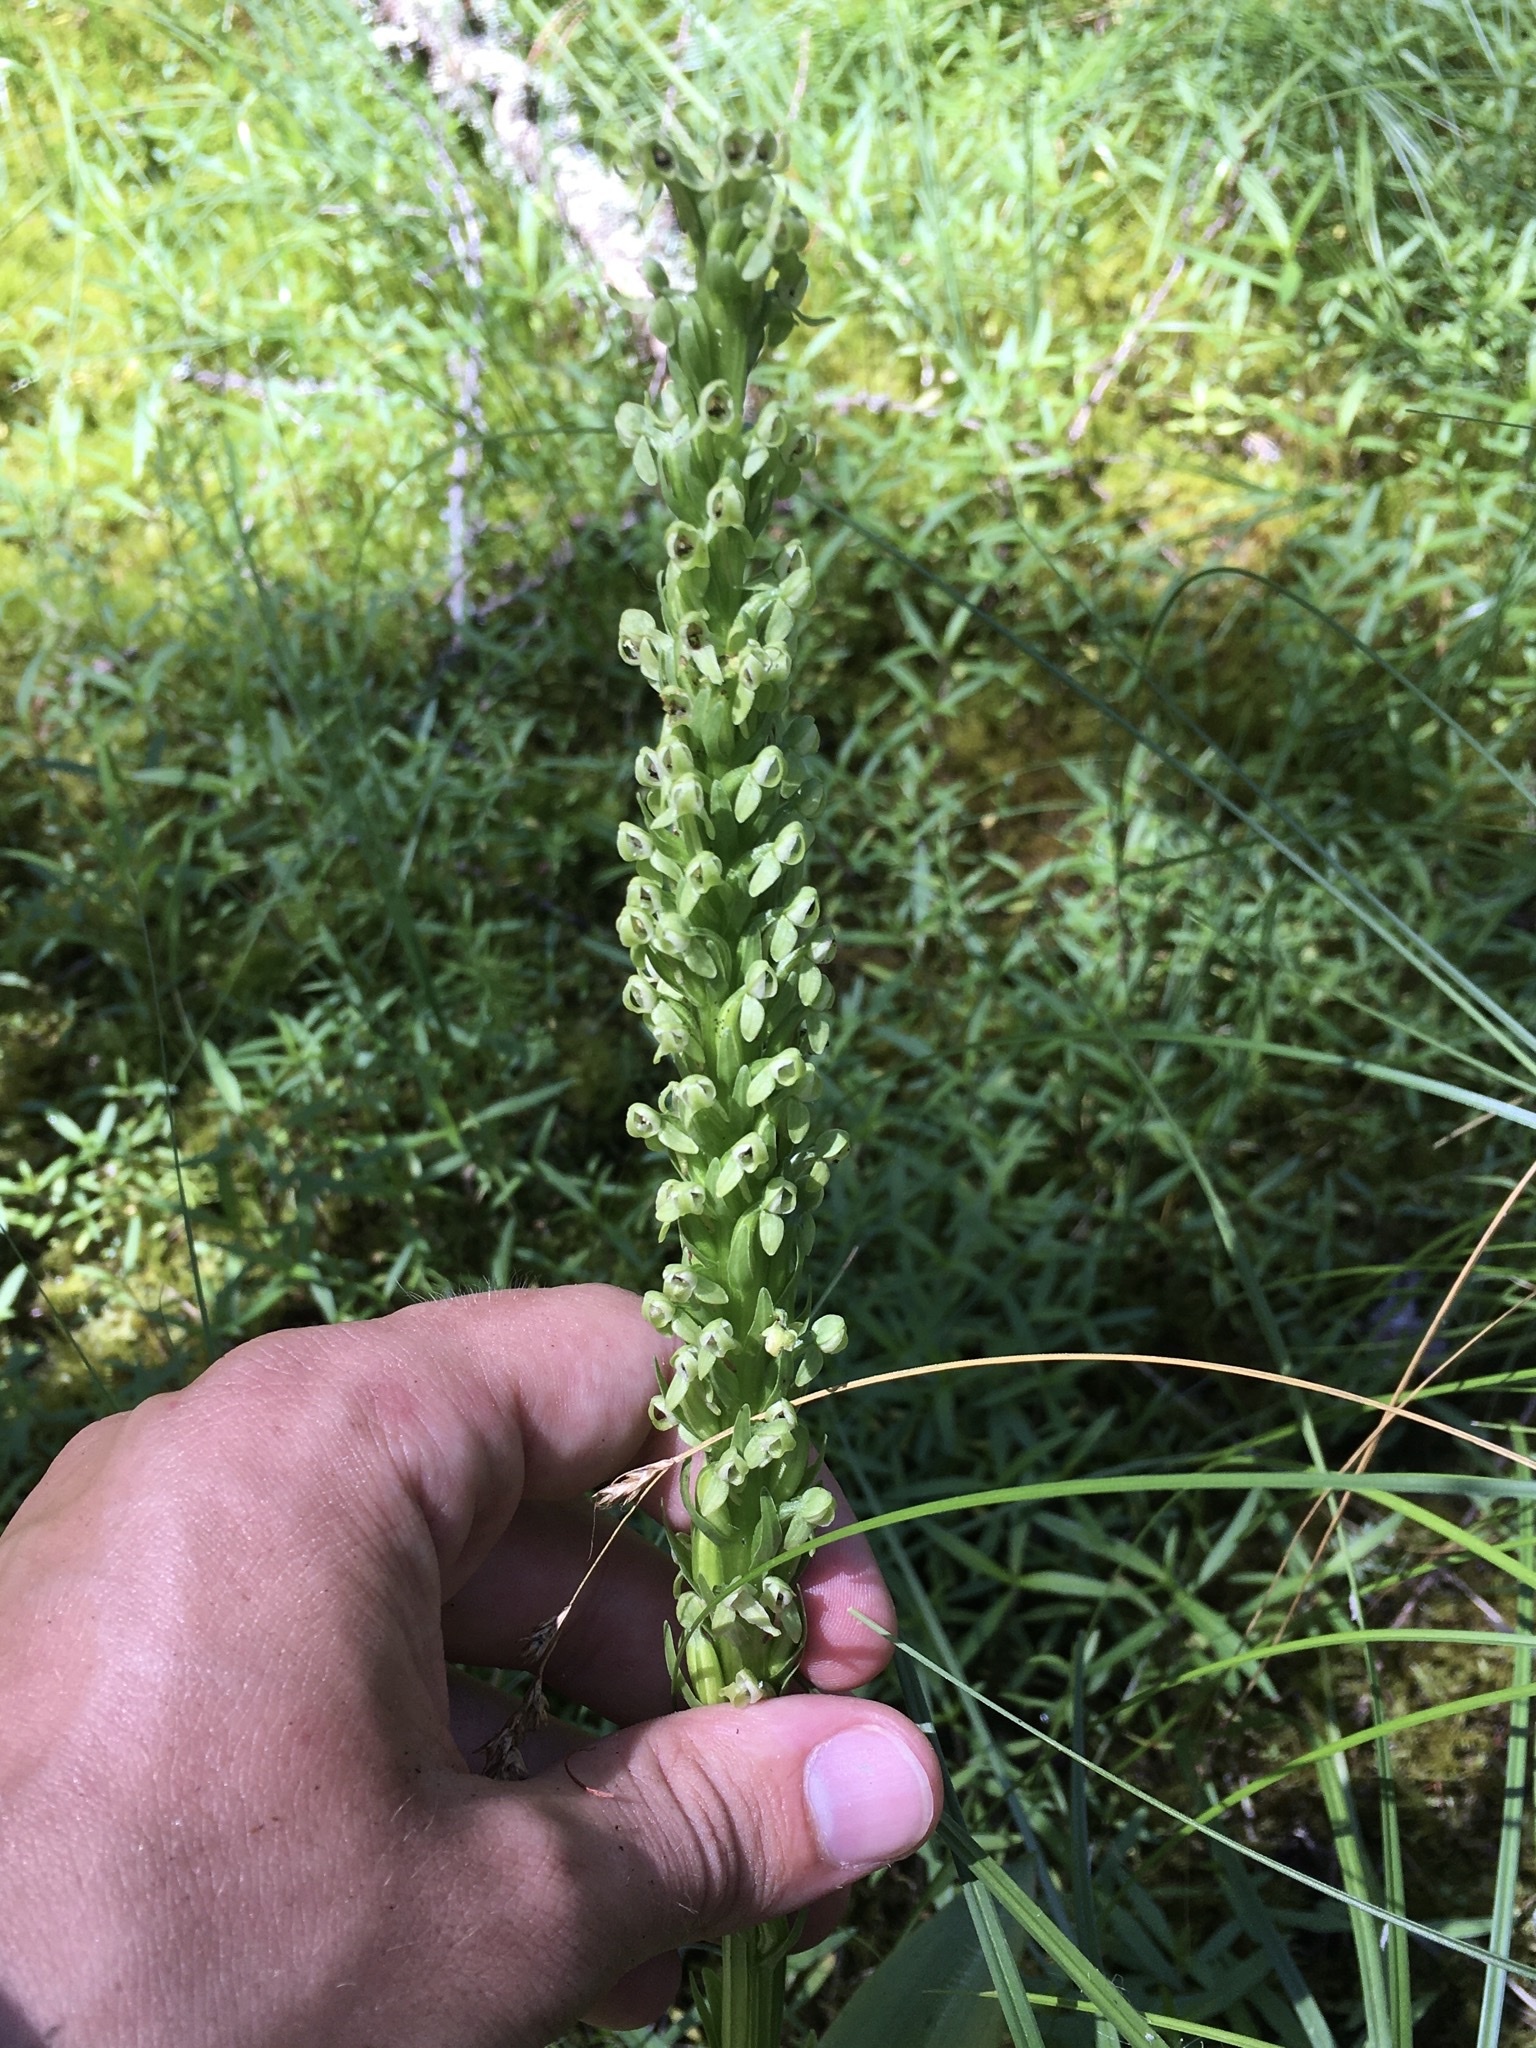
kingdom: Plantae
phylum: Tracheophyta
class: Liliopsida
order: Asparagales
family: Orchidaceae
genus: Platanthera
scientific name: Platanthera huronensis
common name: Fragrant green orchid
